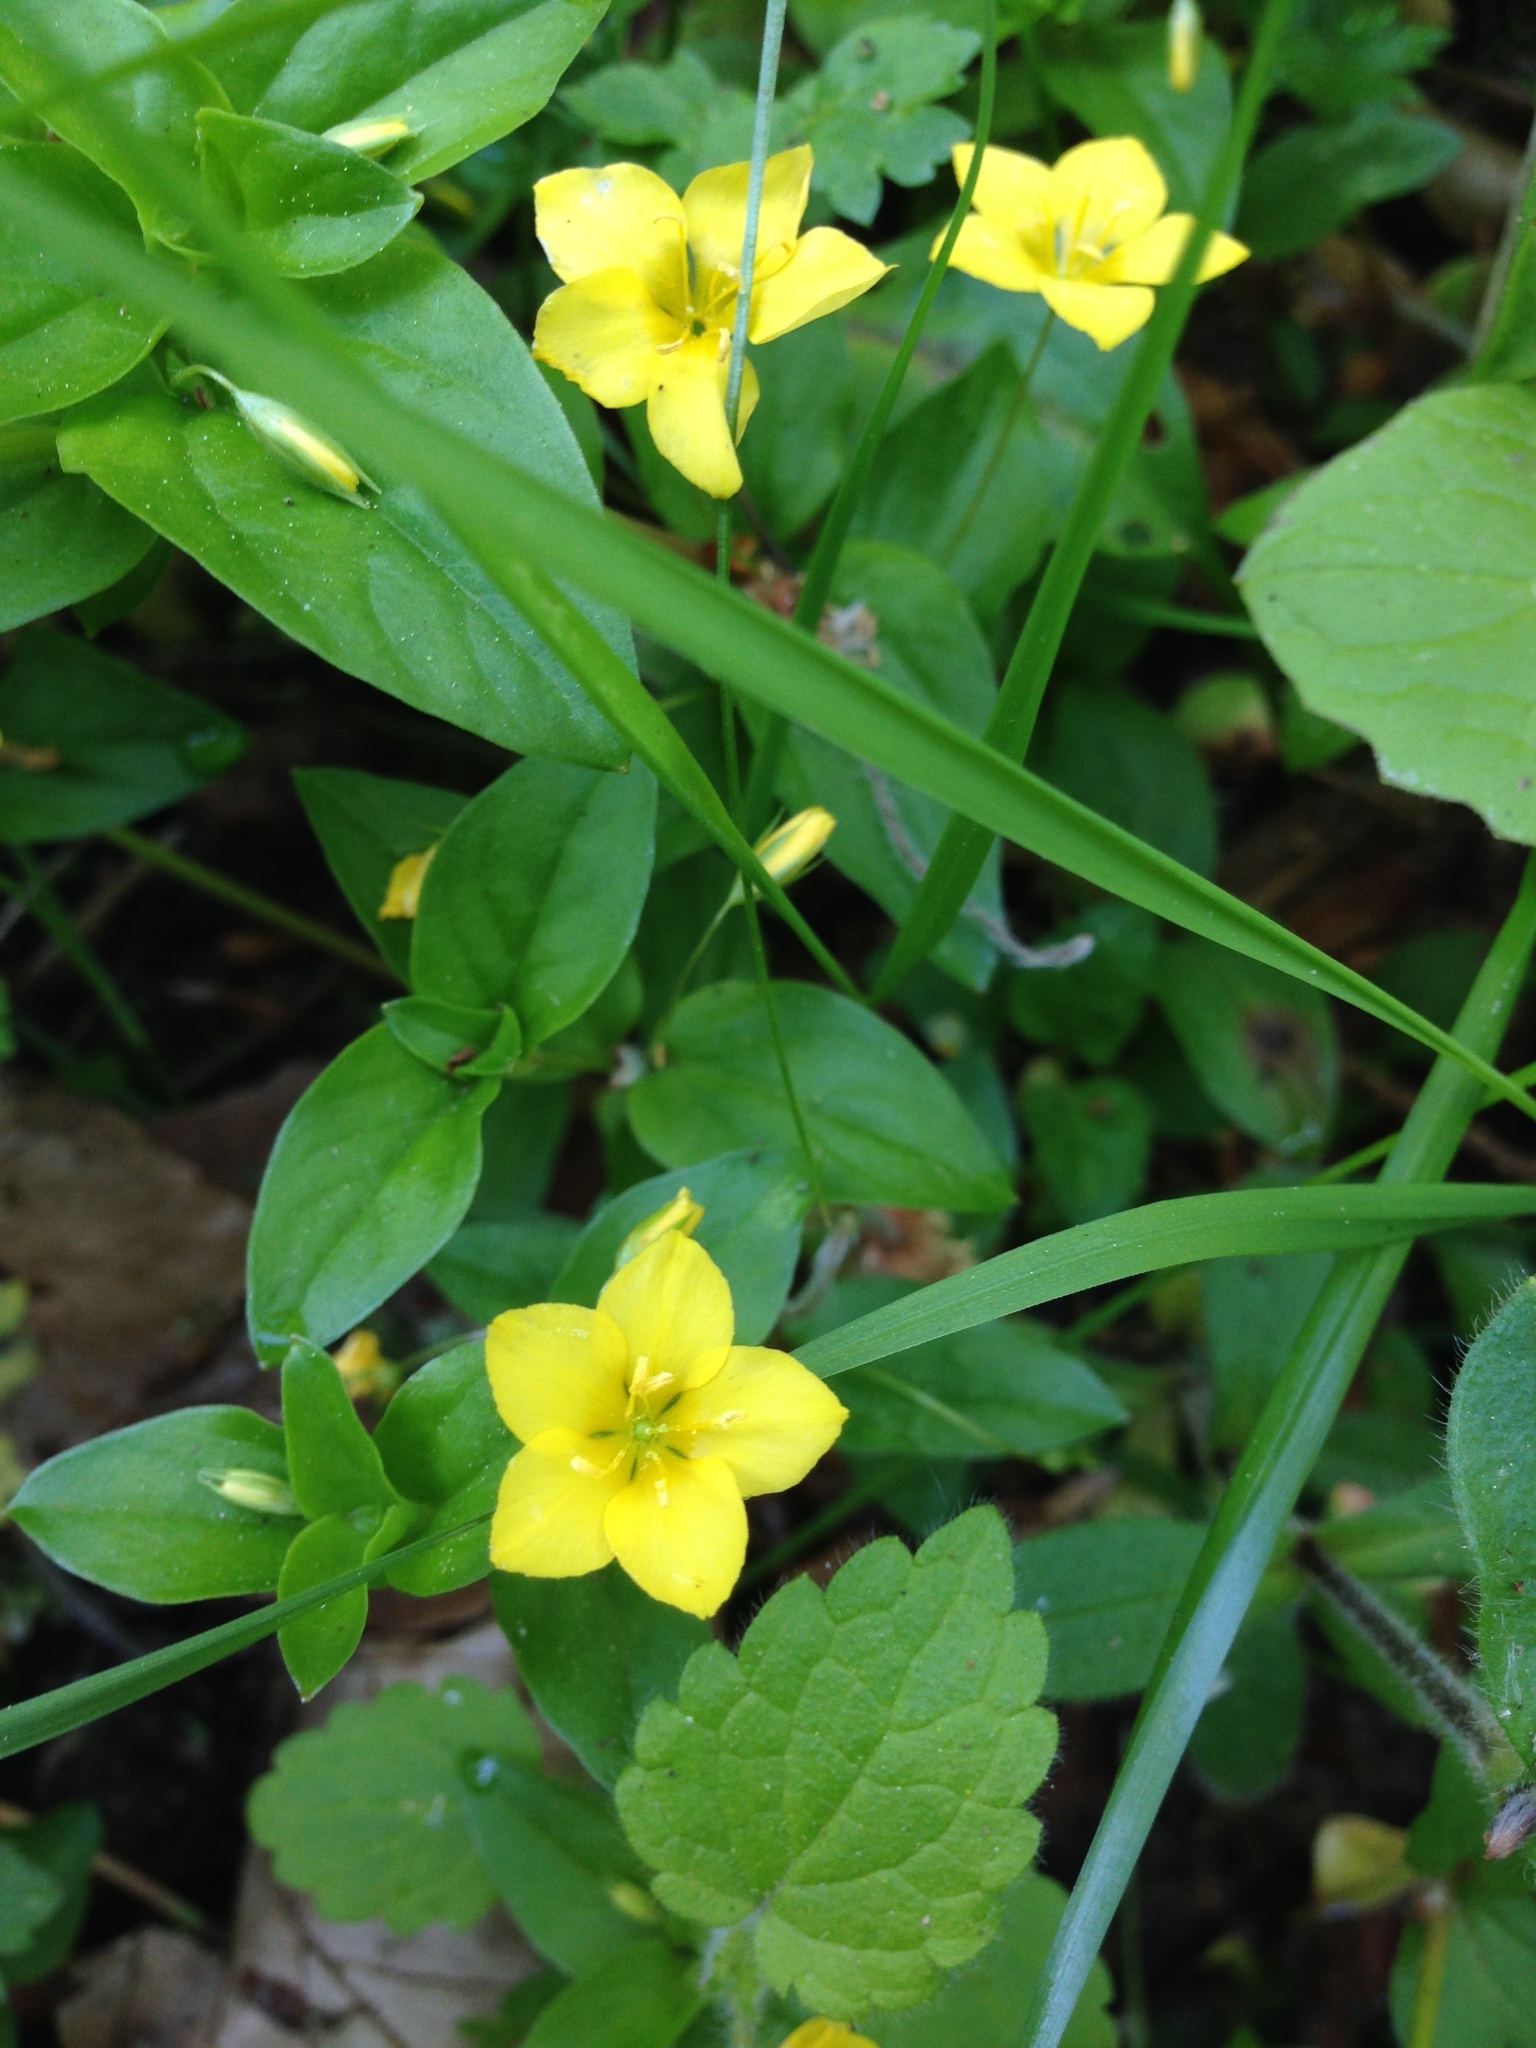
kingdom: Plantae
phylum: Tracheophyta
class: Magnoliopsida
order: Ericales
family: Primulaceae
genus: Lysimachia
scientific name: Lysimachia nemorum
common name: Yellow pimpernel
